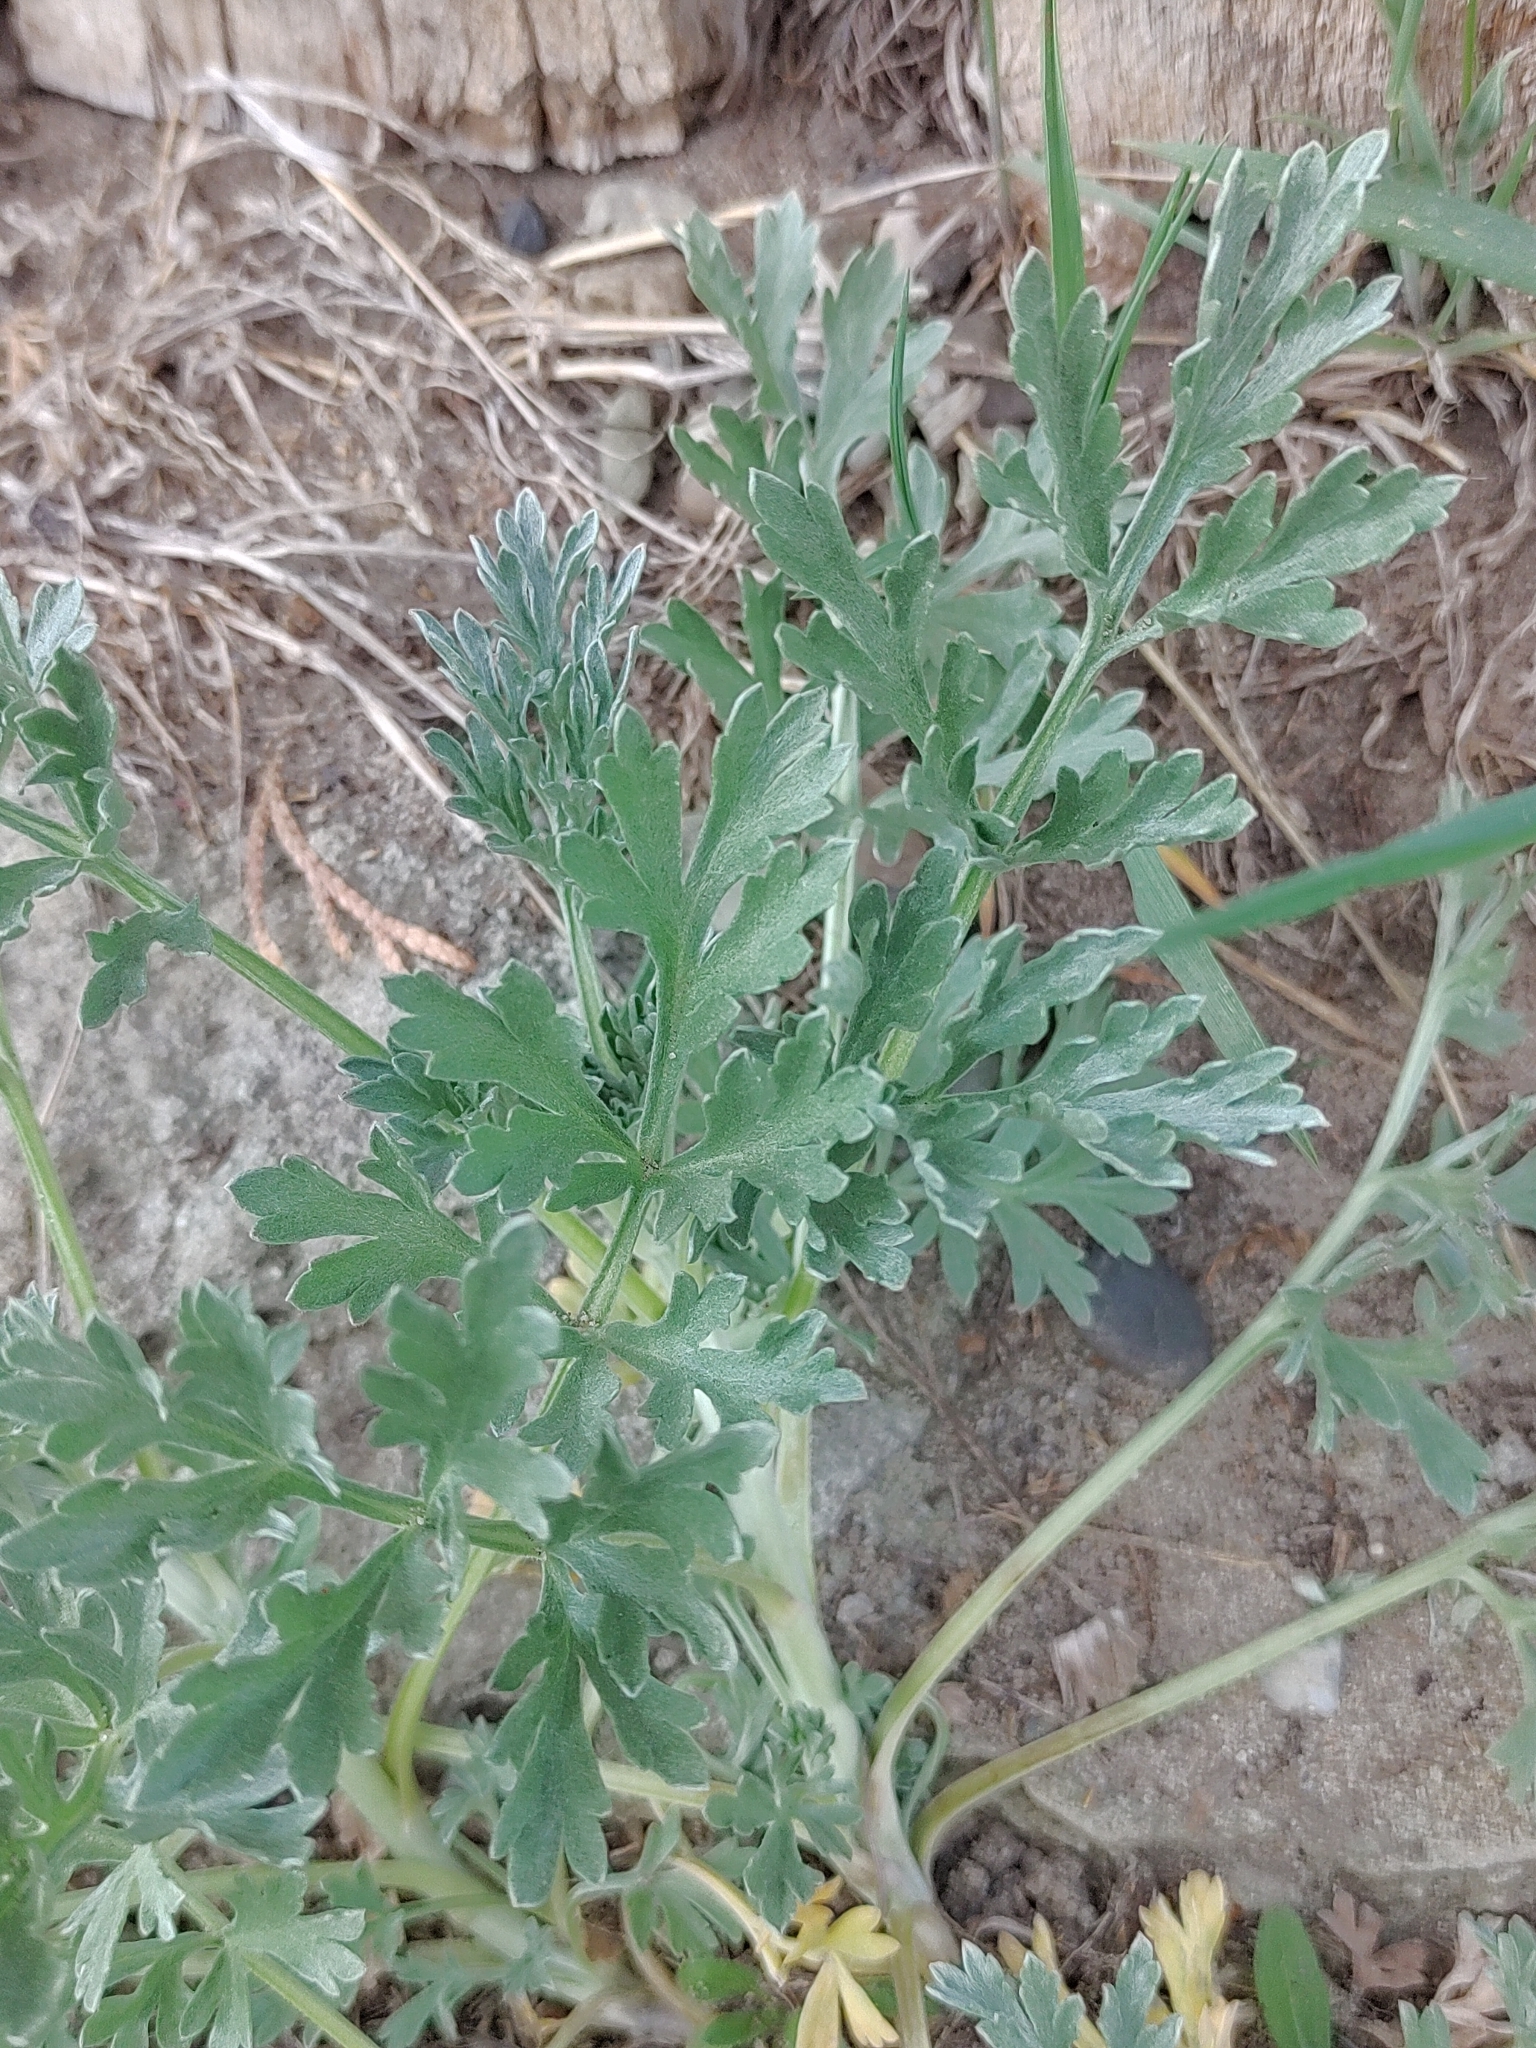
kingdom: Plantae
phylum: Tracheophyta
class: Magnoliopsida
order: Asterales
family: Asteraceae
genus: Artemisia
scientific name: Artemisia absinthium
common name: Wormwood
